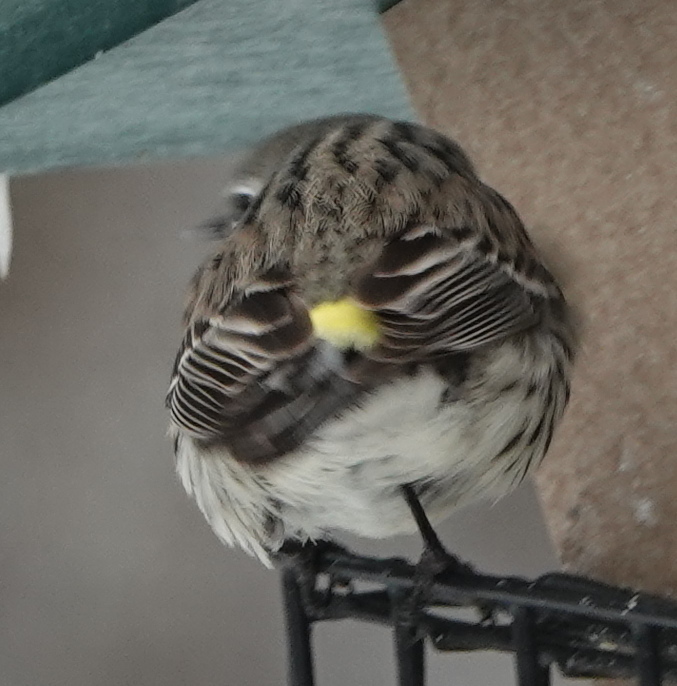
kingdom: Animalia
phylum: Chordata
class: Aves
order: Passeriformes
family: Parulidae
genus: Setophaga
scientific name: Setophaga coronata
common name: Myrtle warbler
